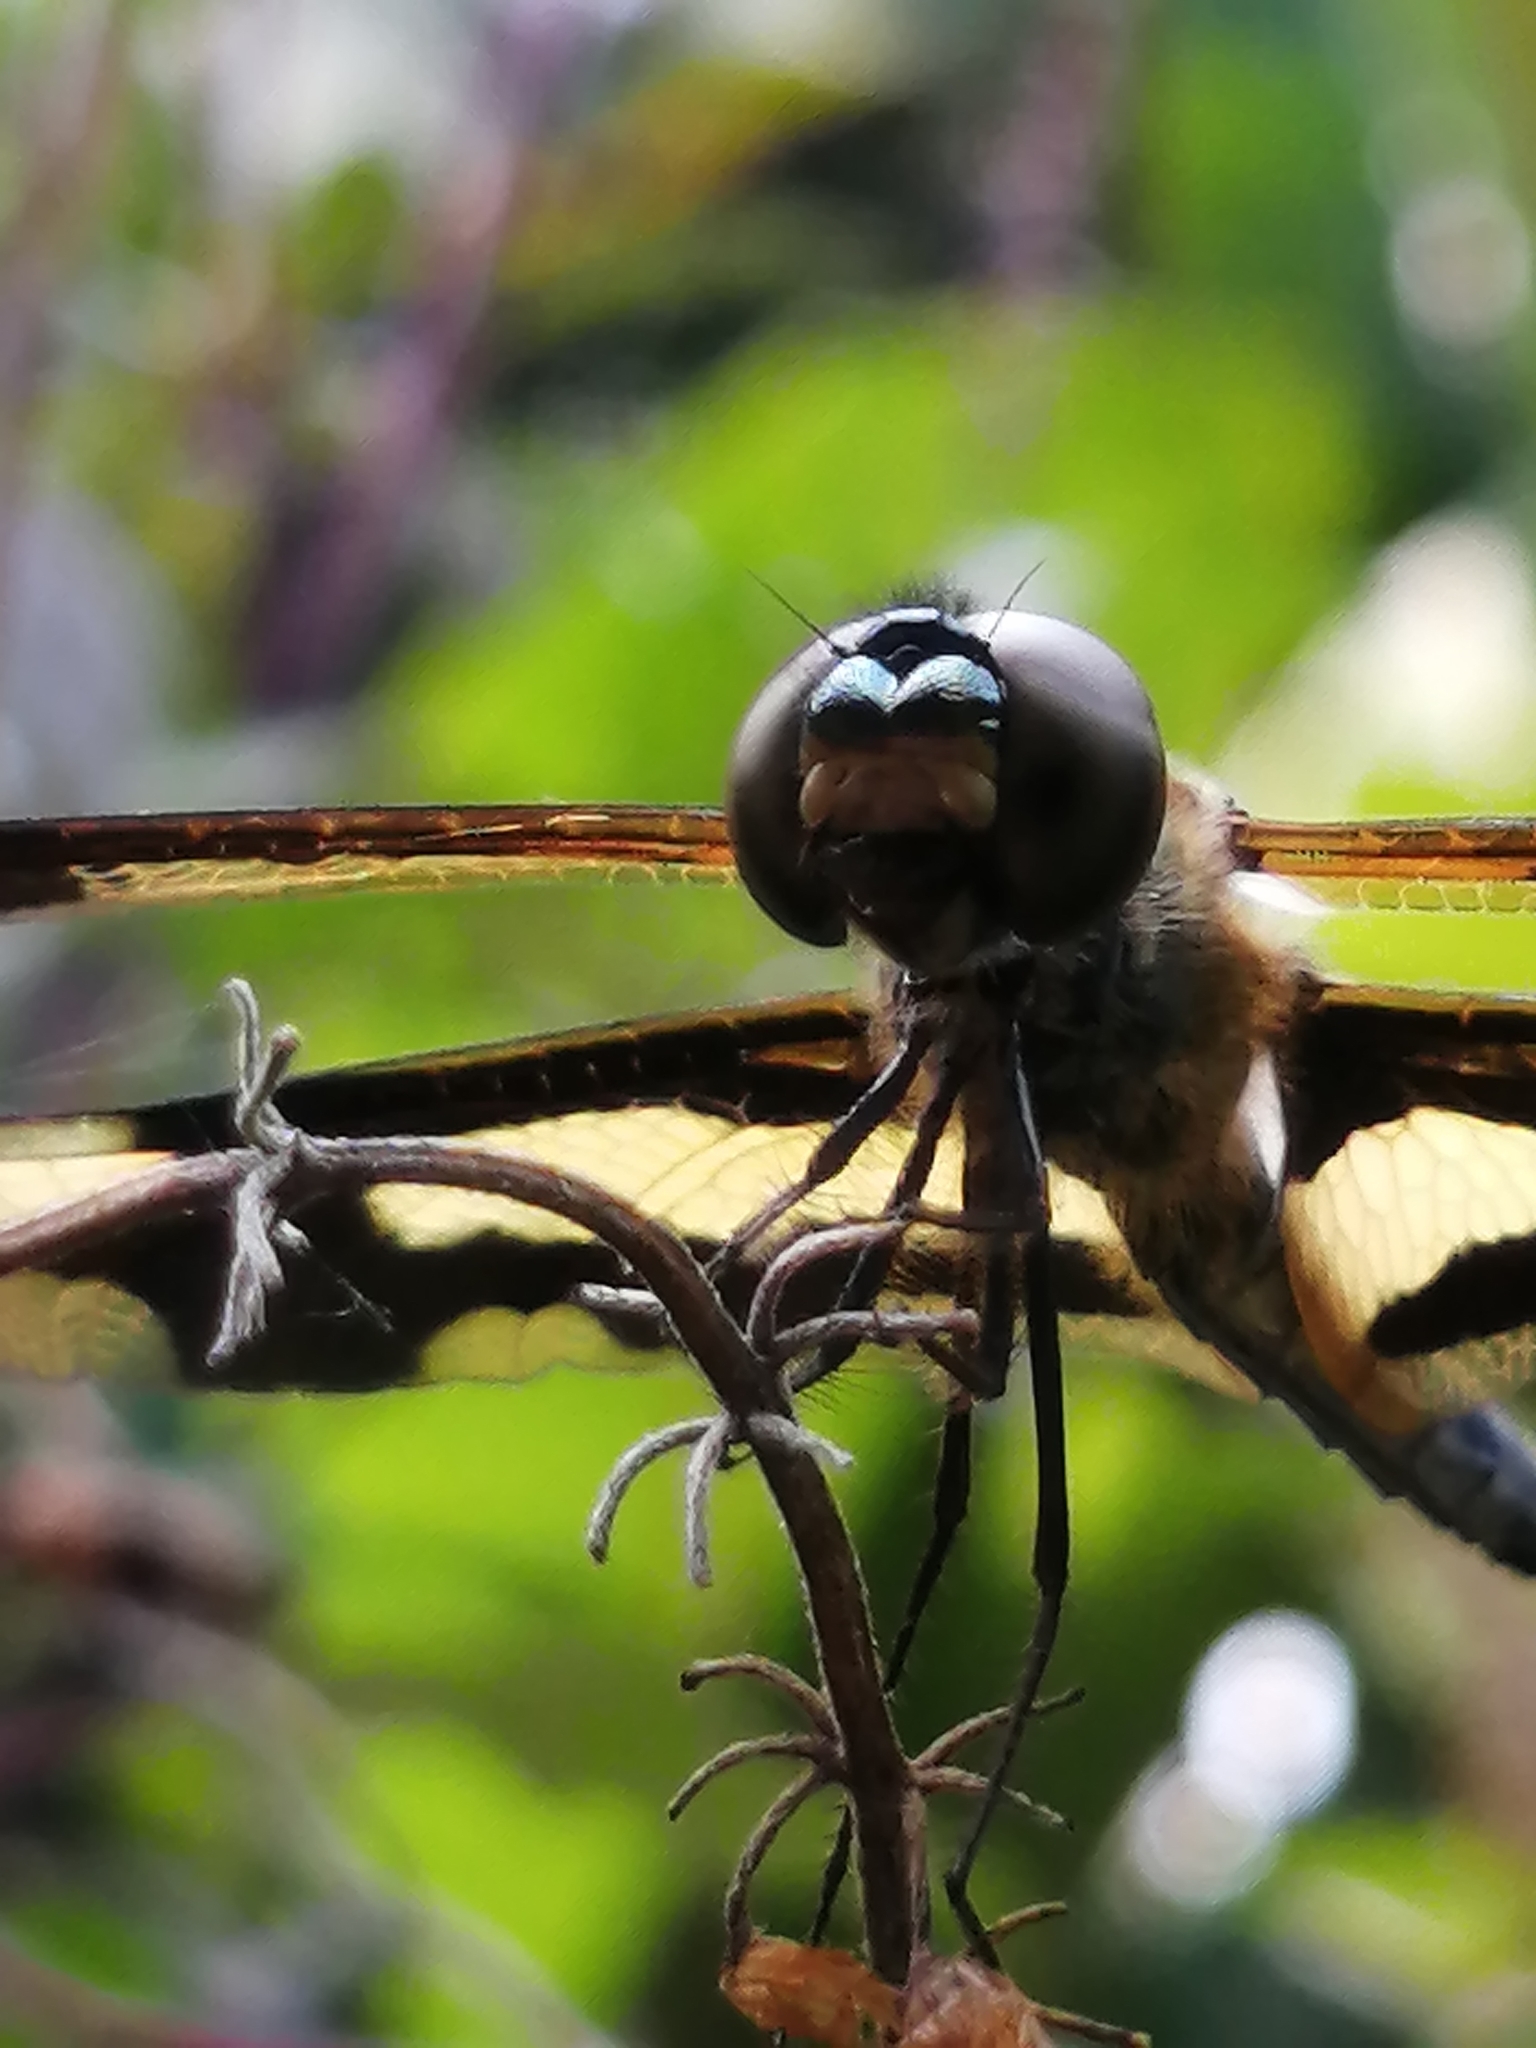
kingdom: Animalia
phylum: Arthropoda
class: Insecta
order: Odonata
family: Libellulidae
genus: Rhyothemis
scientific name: Rhyothemis variegata
